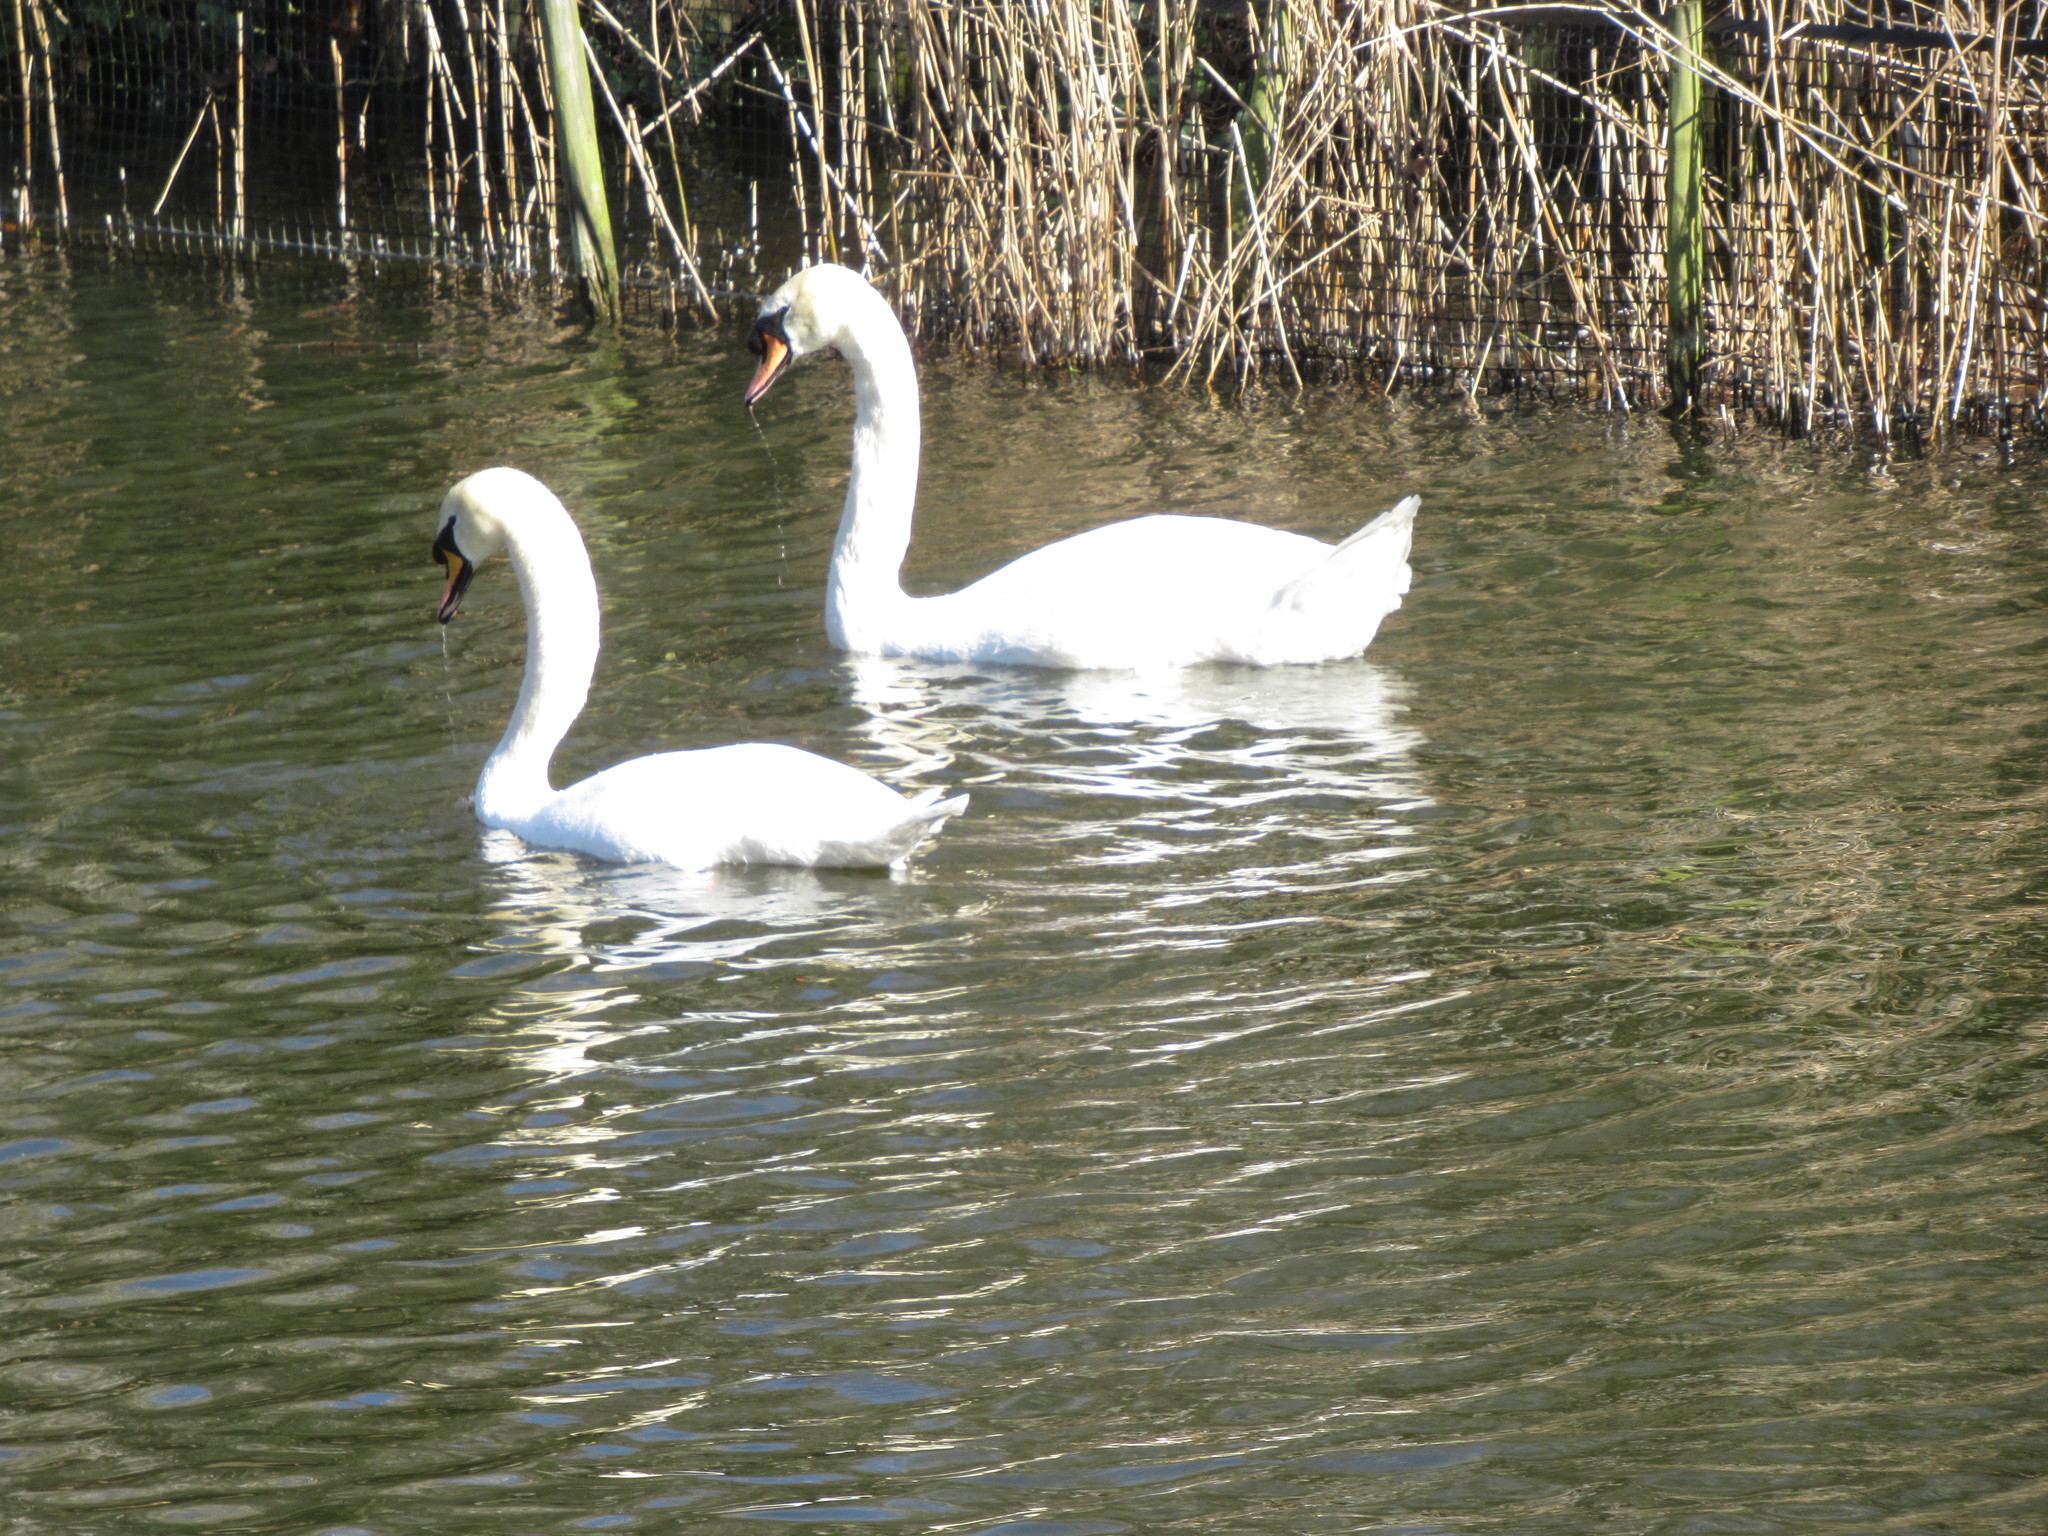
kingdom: Animalia
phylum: Chordata
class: Aves
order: Anseriformes
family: Anatidae
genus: Cygnus
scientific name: Cygnus olor
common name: Mute swan
